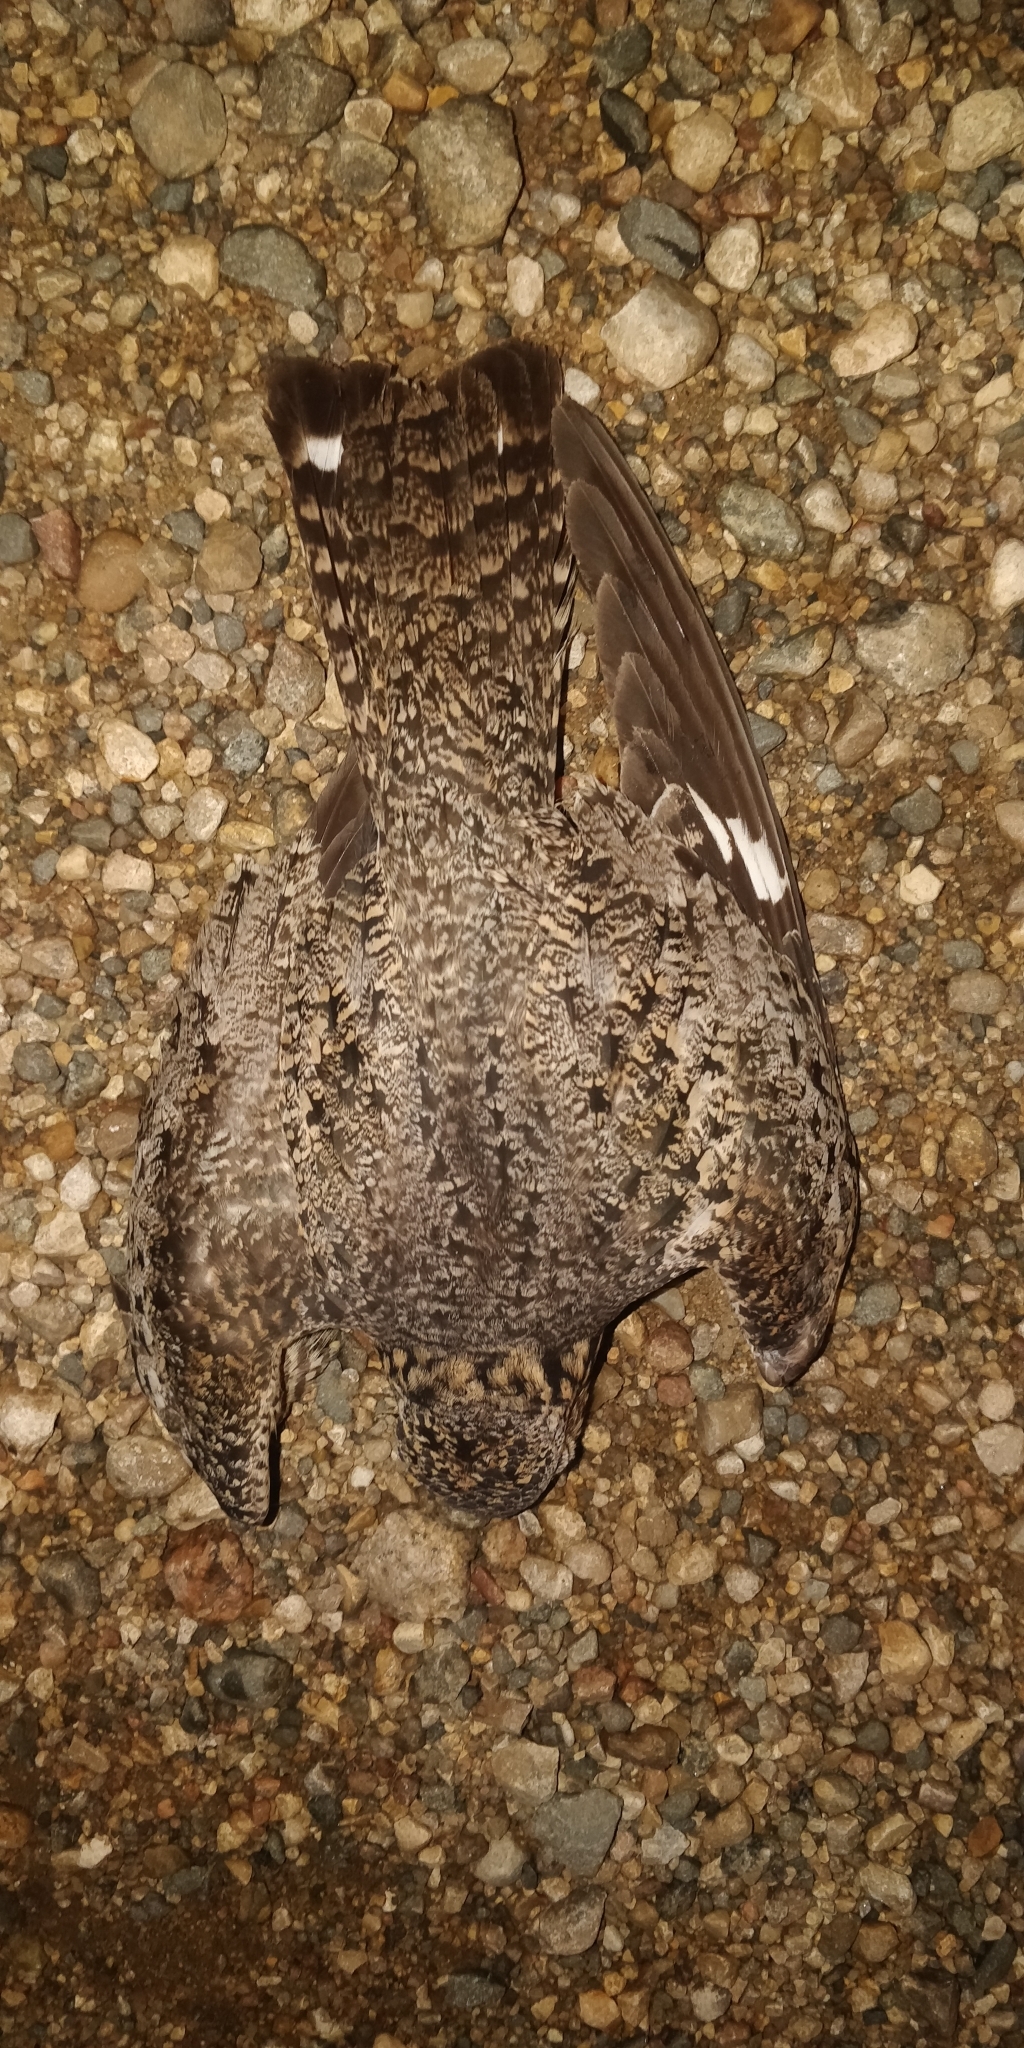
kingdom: Animalia
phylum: Chordata
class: Aves
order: Caprimulgiformes
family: Caprimulgidae
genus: Chordeiles
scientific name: Chordeiles minor
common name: Common nighthawk
